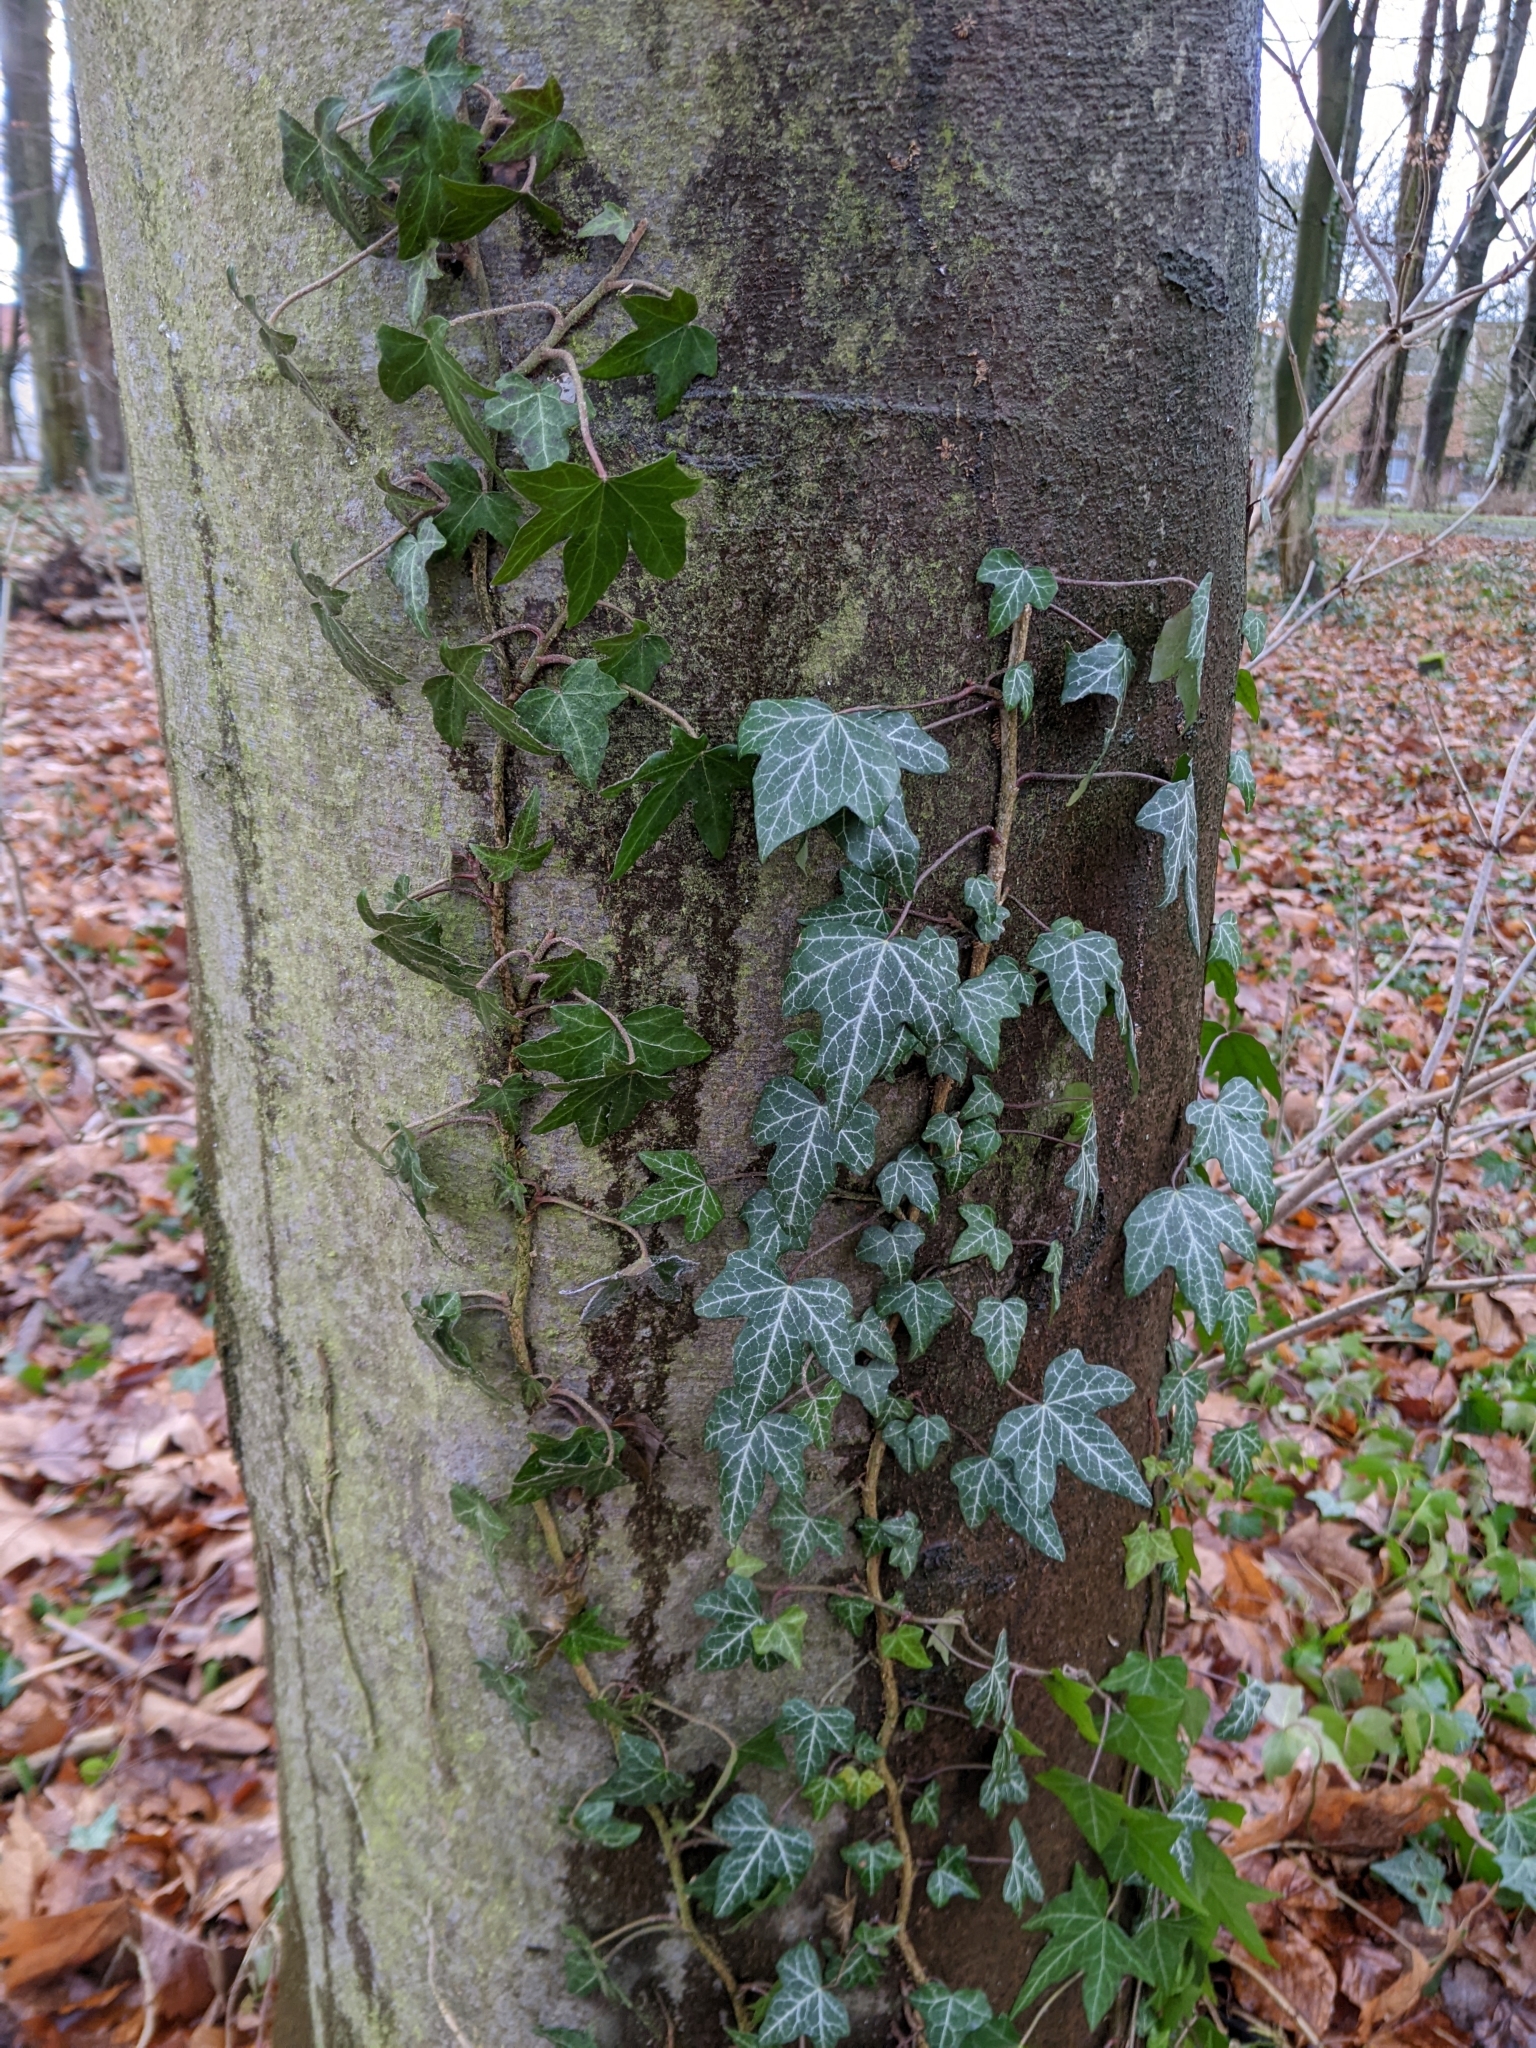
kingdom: Plantae
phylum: Tracheophyta
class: Magnoliopsida
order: Apiales
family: Araliaceae
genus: Hedera
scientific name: Hedera helix
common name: Ivy
